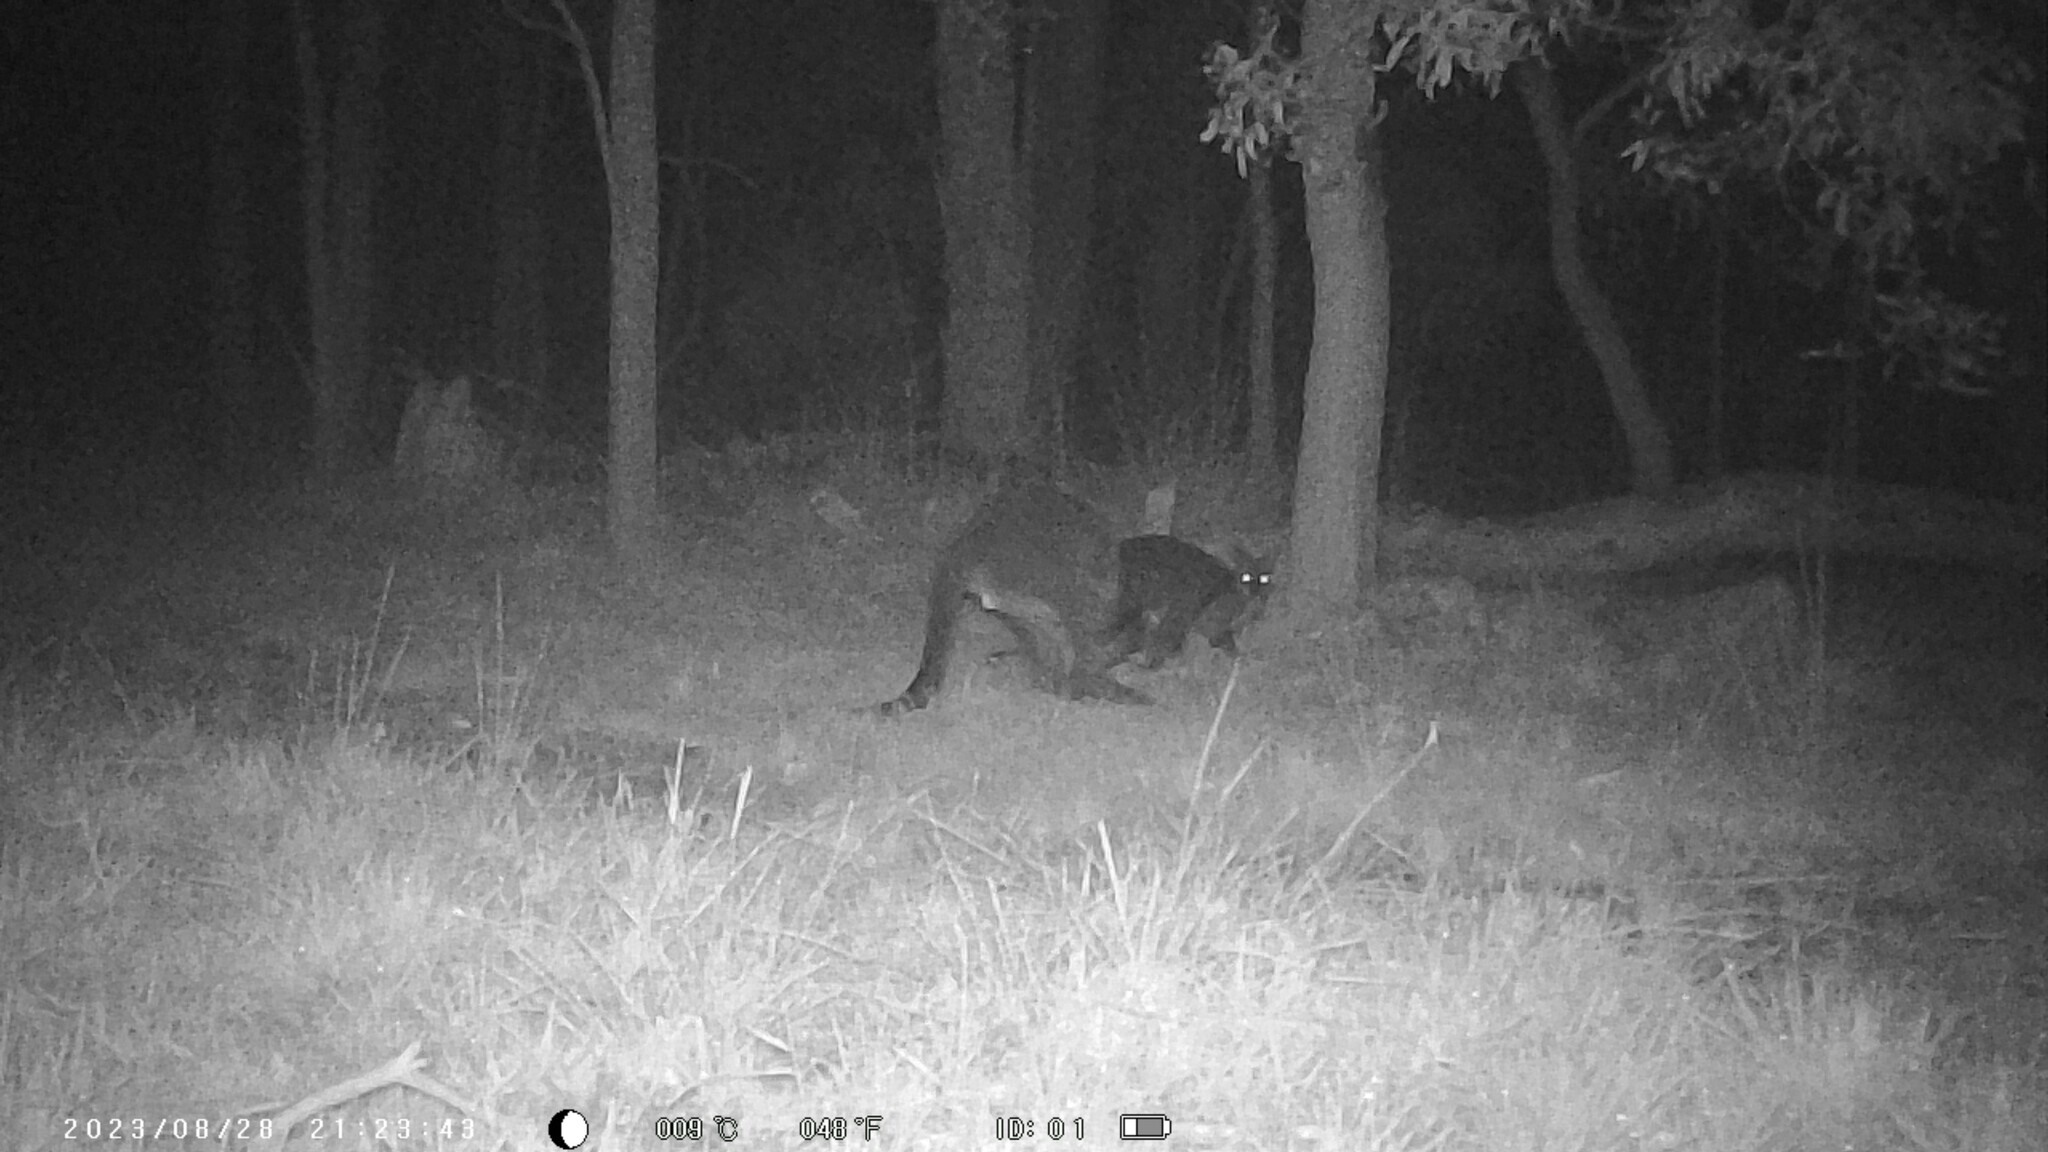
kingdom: Animalia
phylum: Chordata
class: Mammalia
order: Diprotodontia
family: Macropodidae
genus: Wallabia
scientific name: Wallabia bicolor
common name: Swamp wallaby
